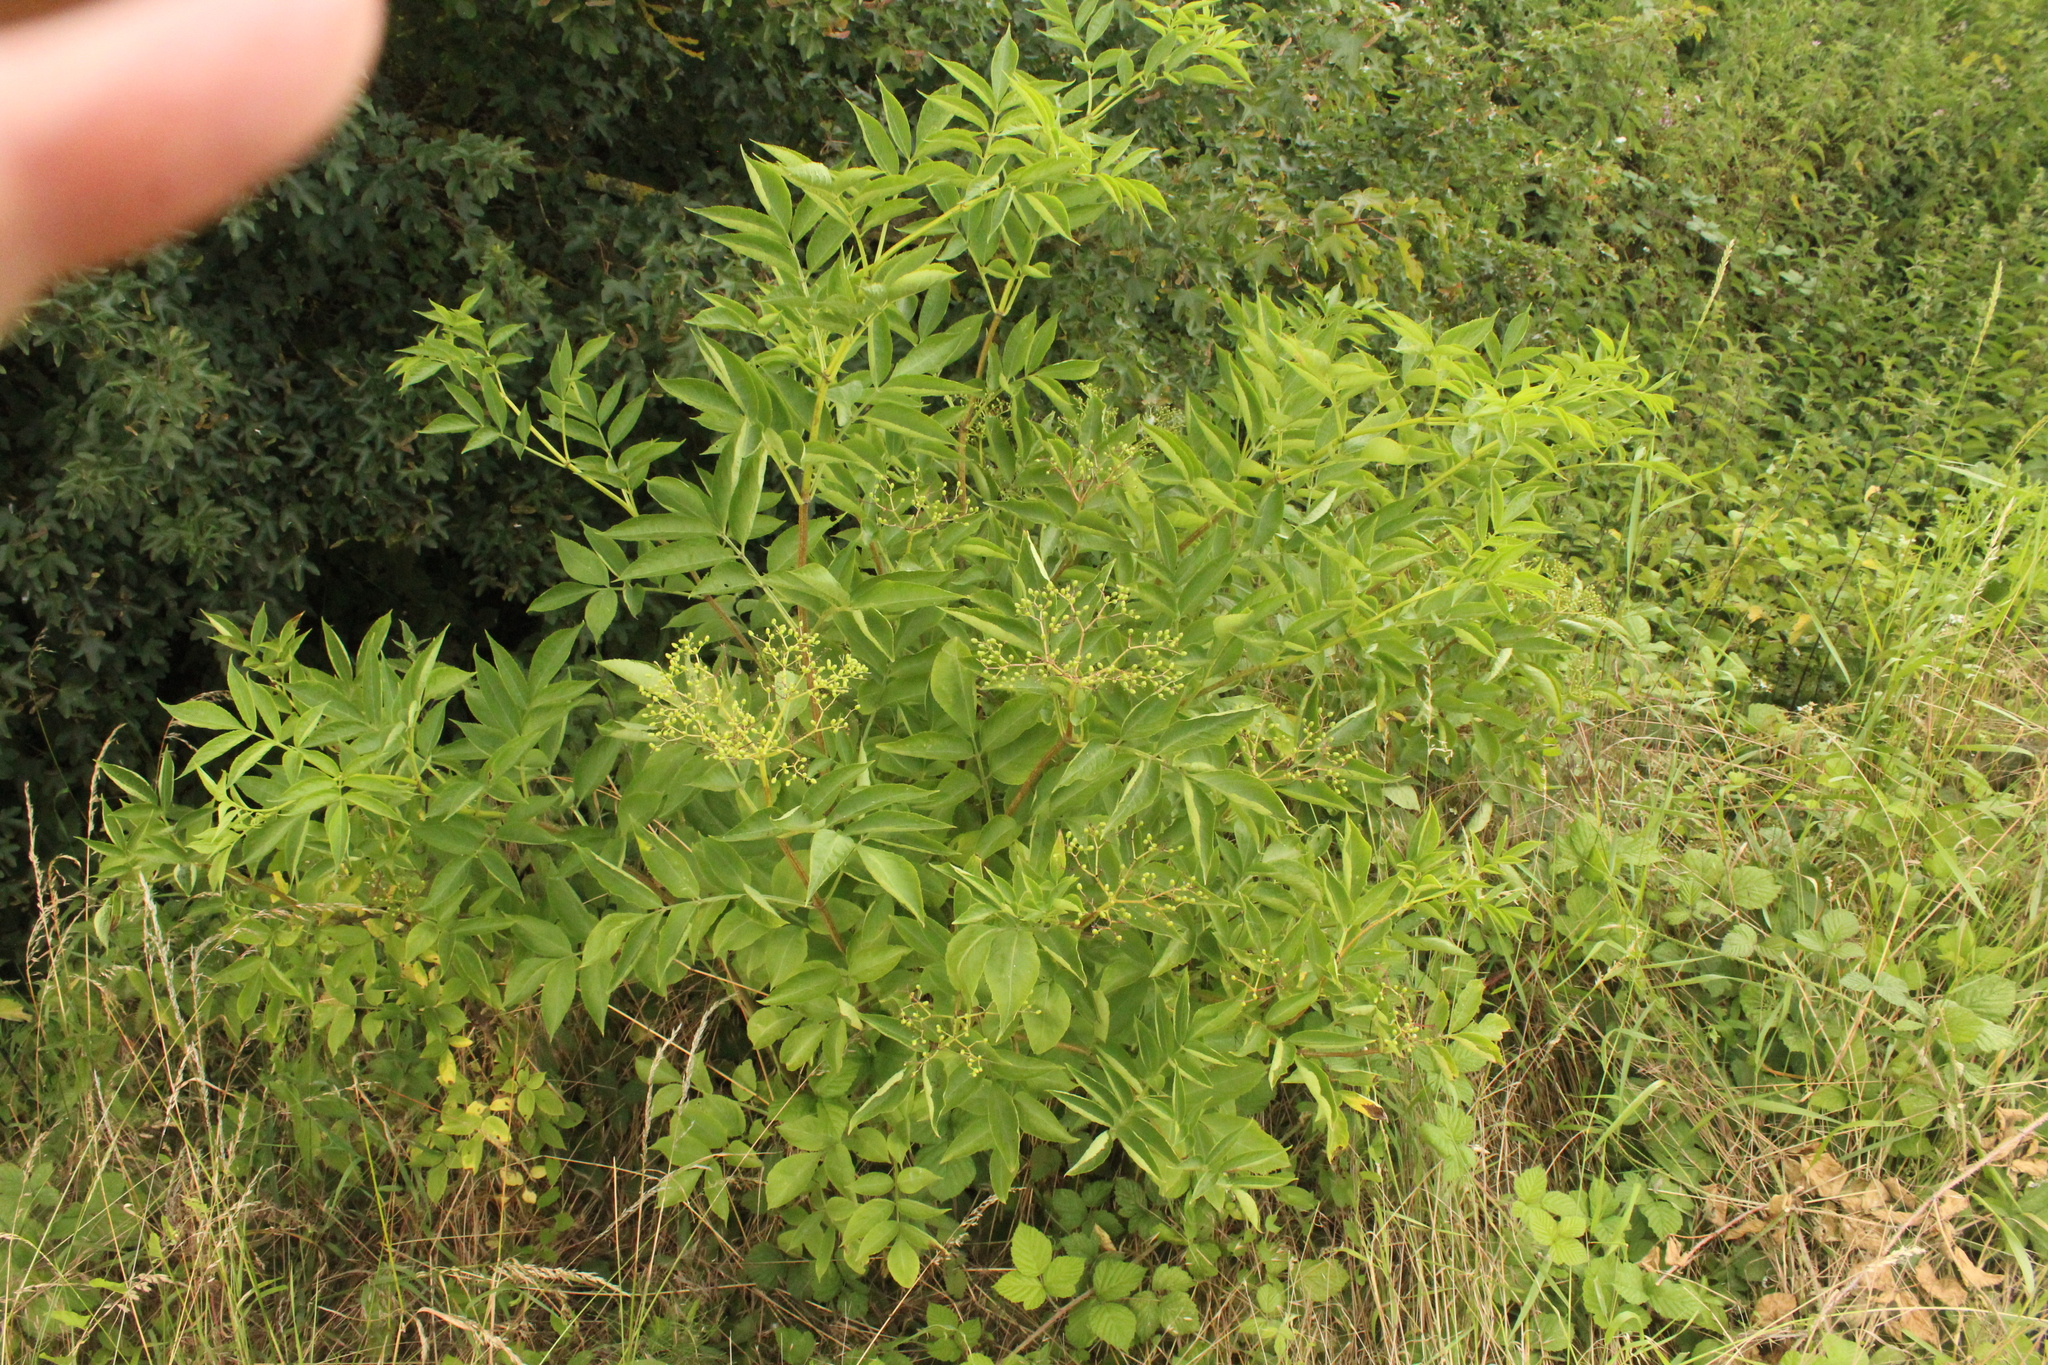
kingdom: Plantae
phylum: Tracheophyta
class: Magnoliopsida
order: Dipsacales
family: Viburnaceae
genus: Sambucus
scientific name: Sambucus nigra
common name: Elder
